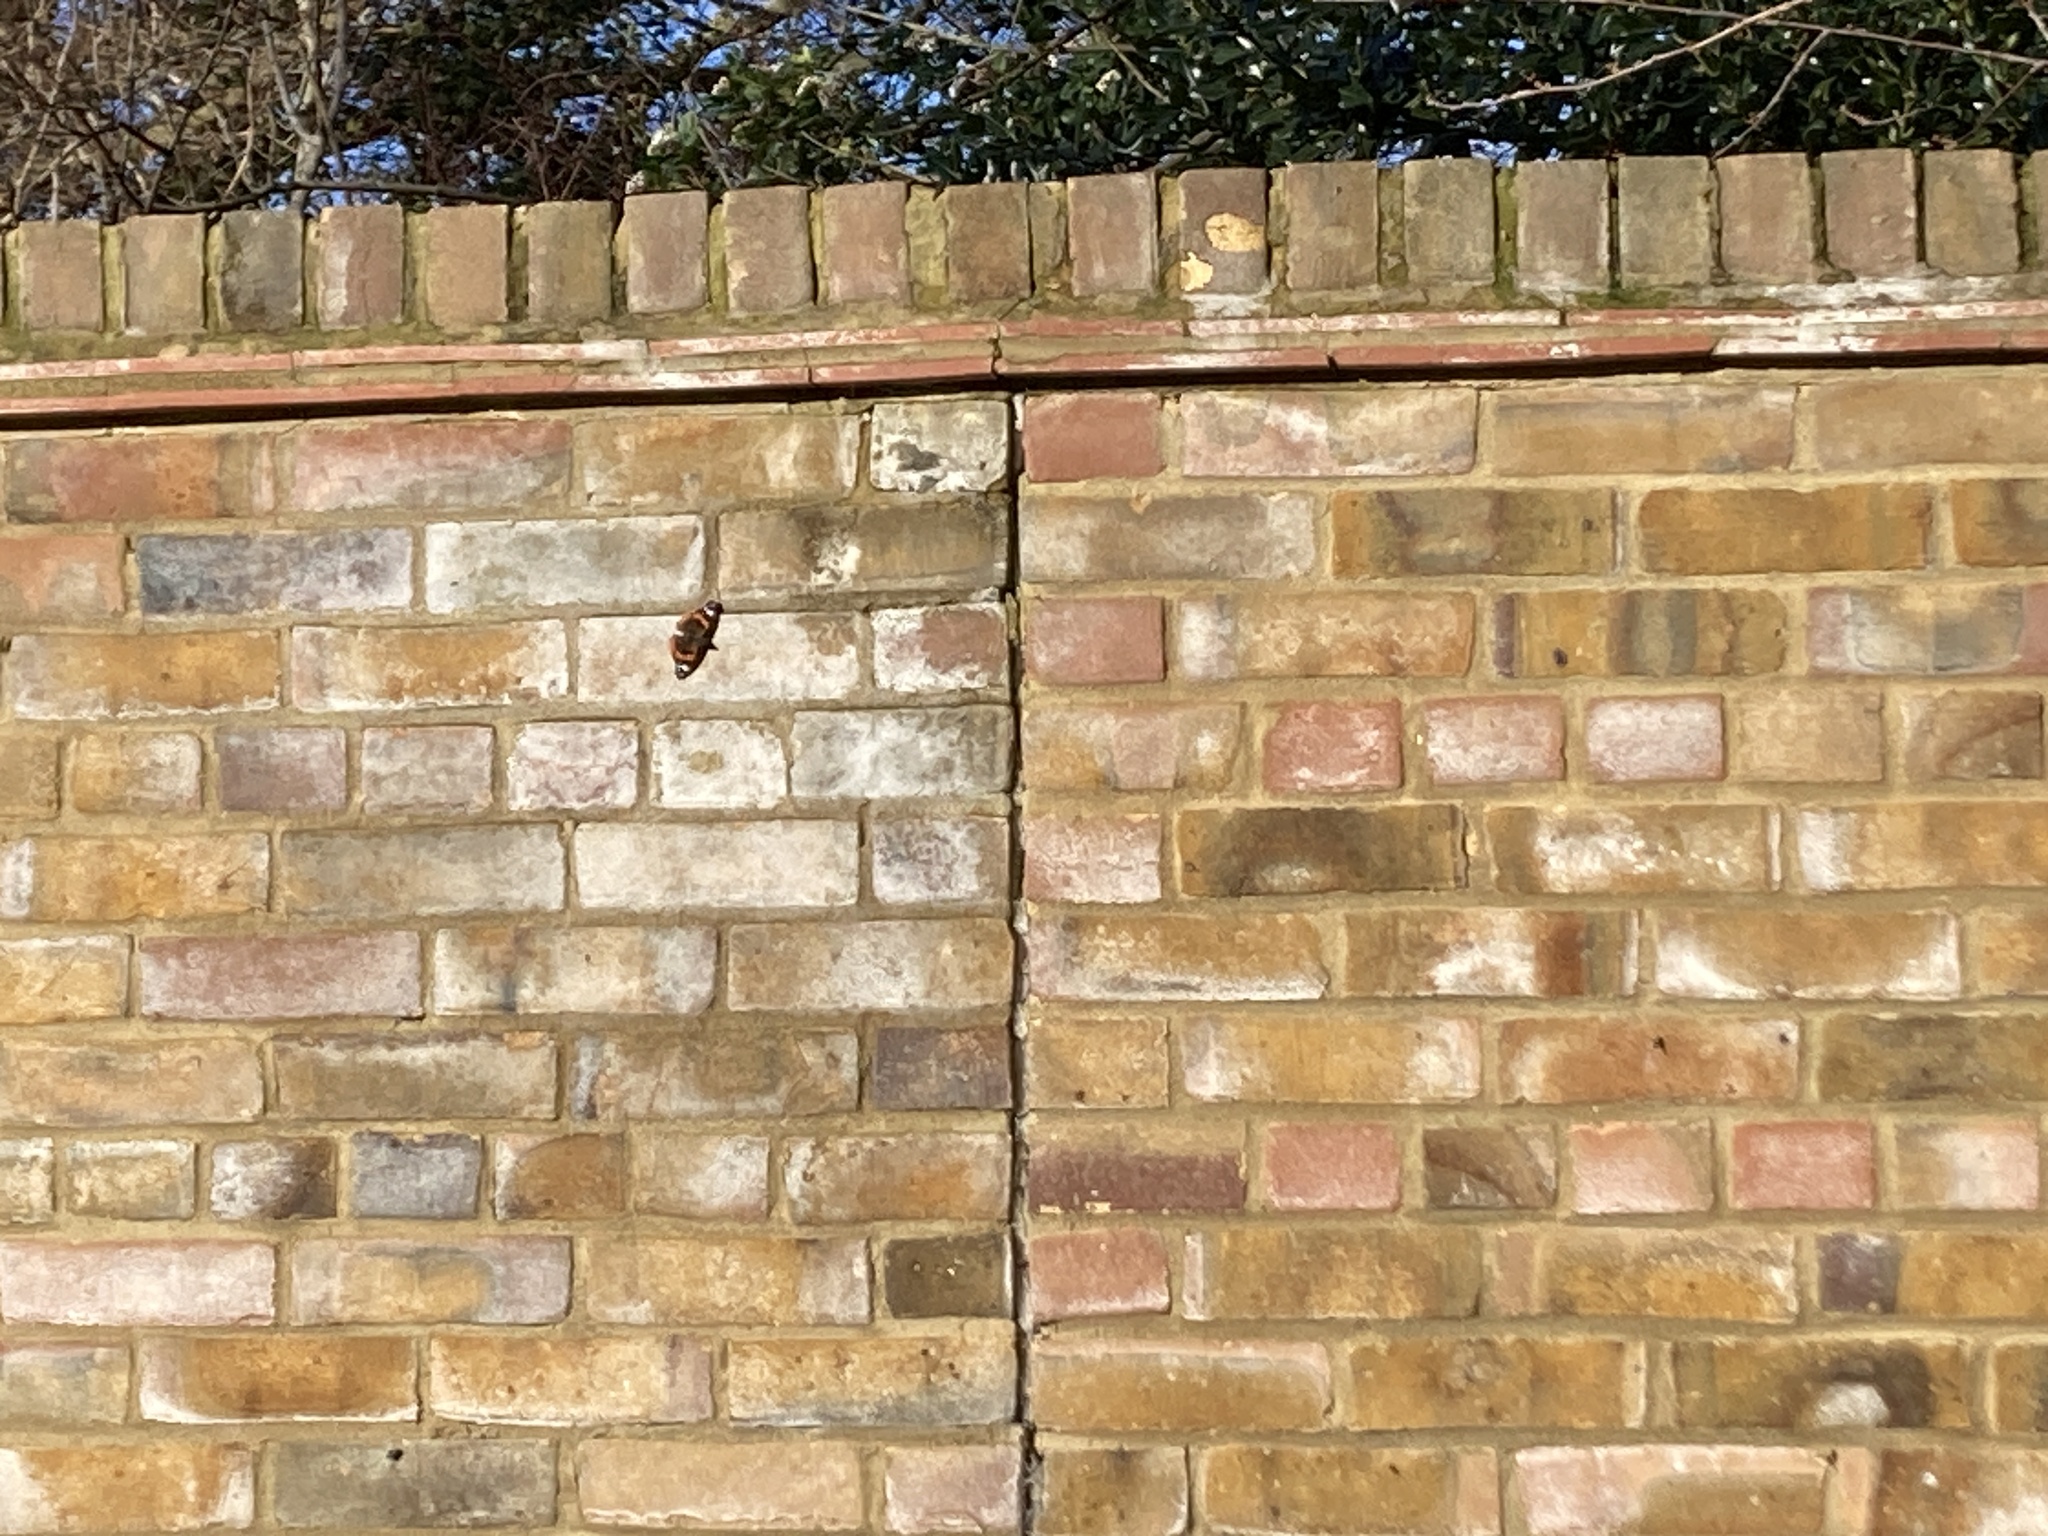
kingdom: Animalia
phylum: Arthropoda
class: Insecta
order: Lepidoptera
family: Nymphalidae
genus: Vanessa
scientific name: Vanessa atalanta
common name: Red admiral
